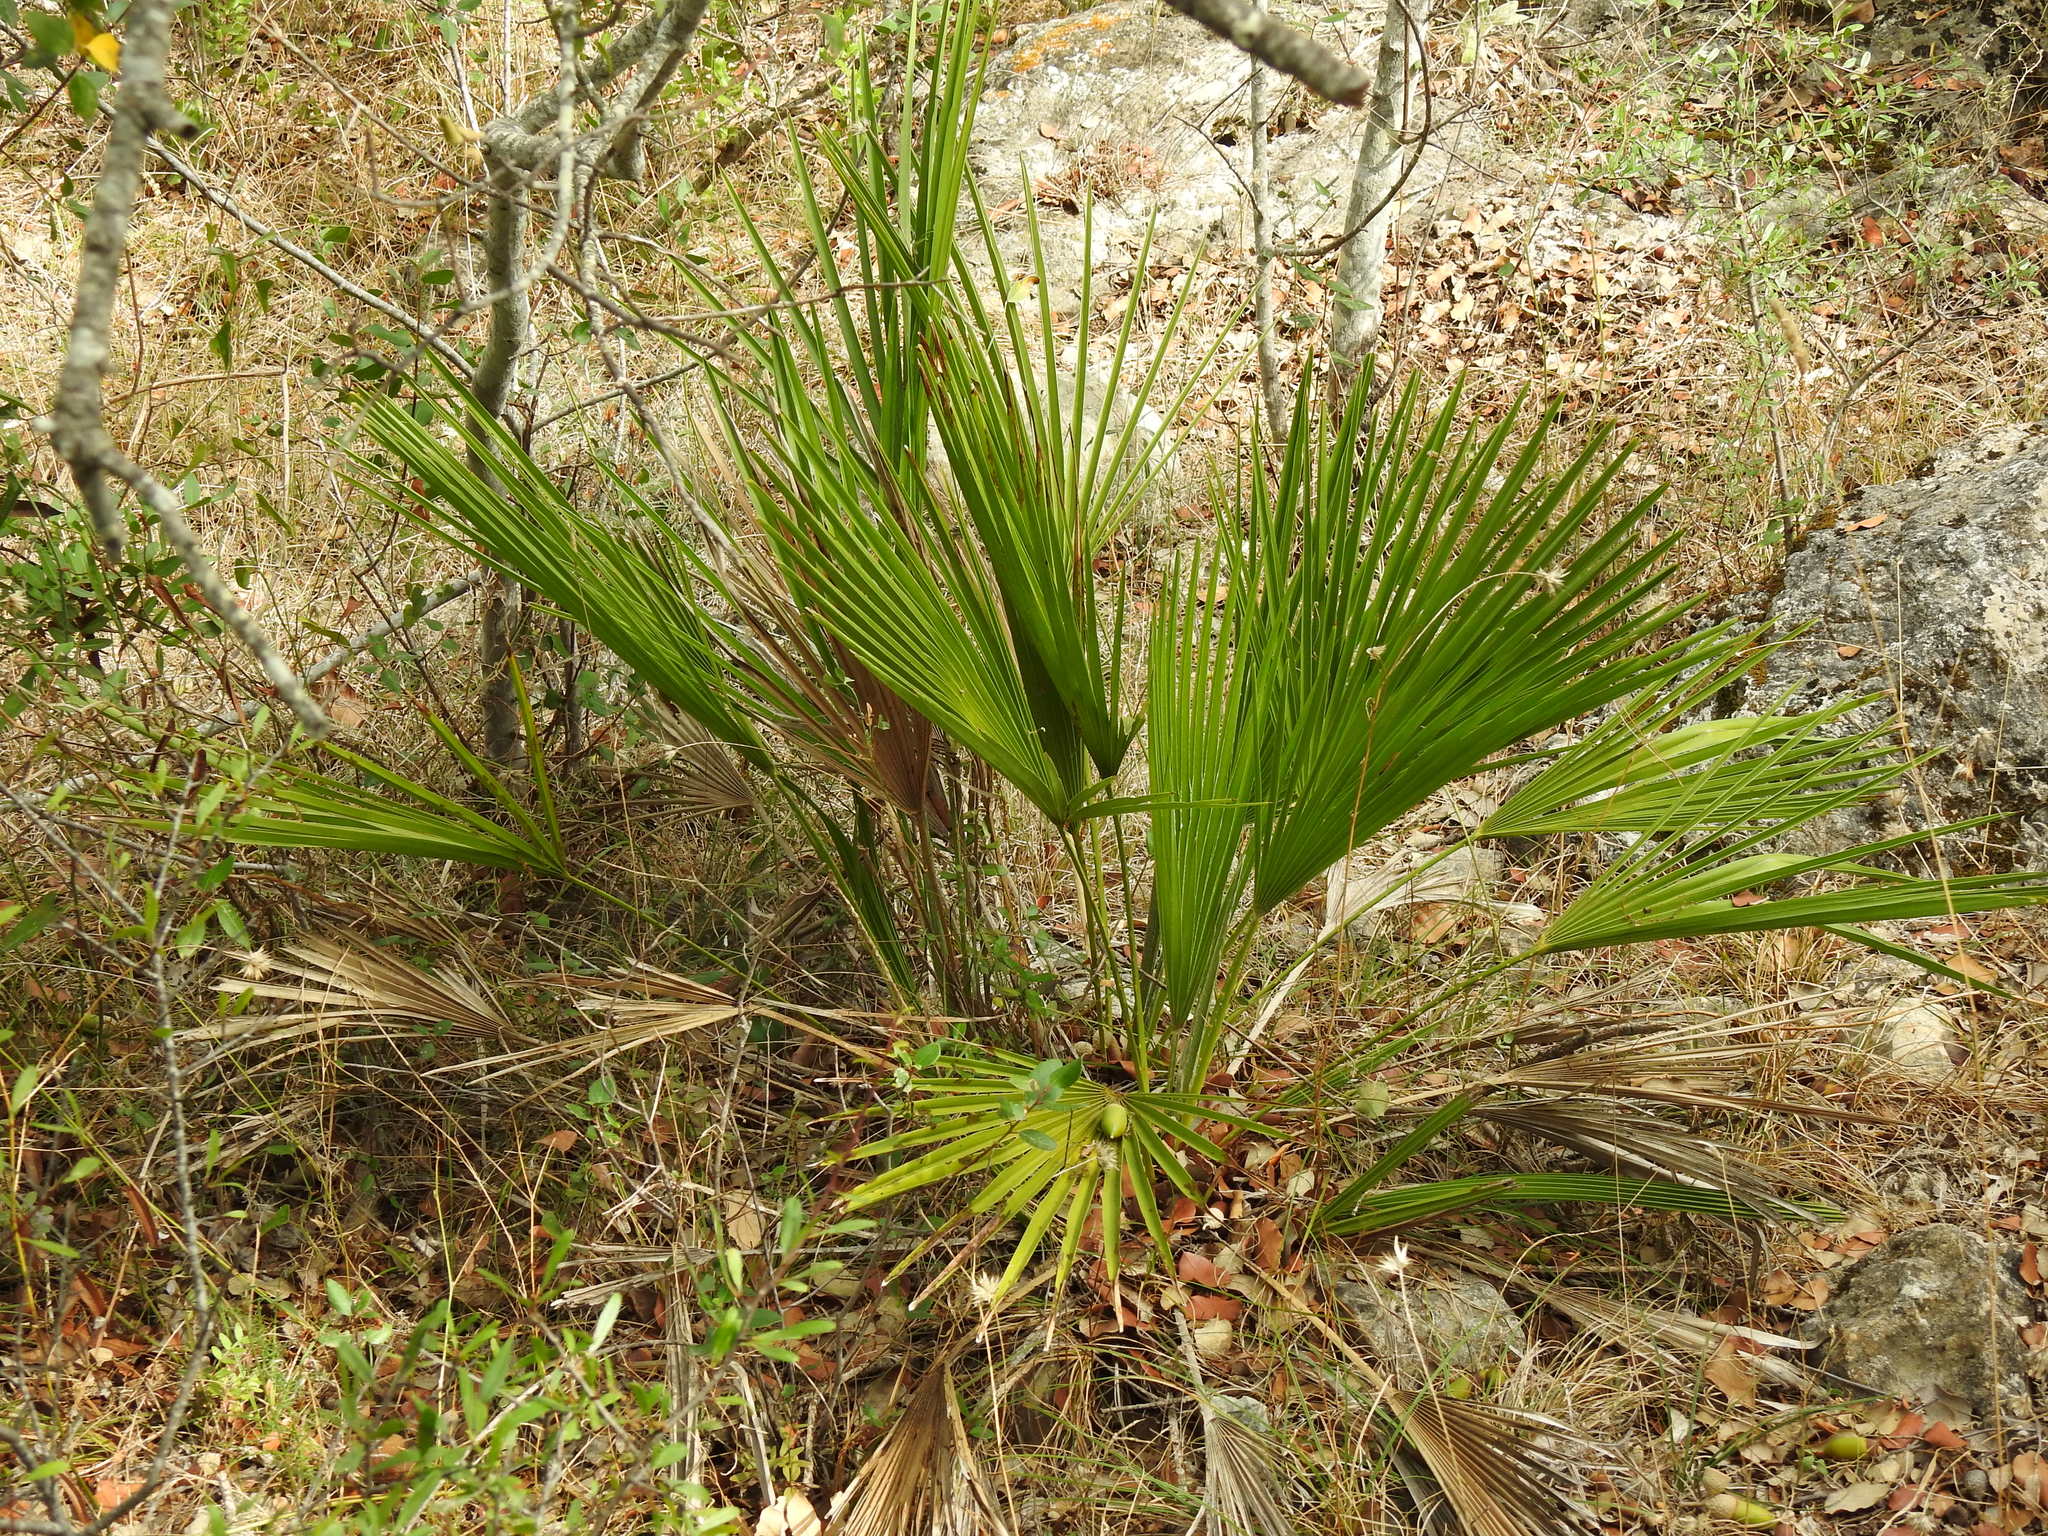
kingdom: Plantae
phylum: Tracheophyta
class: Liliopsida
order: Arecales
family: Arecaceae
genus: Chamaerops
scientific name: Chamaerops humilis
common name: Dwarf fan palm
